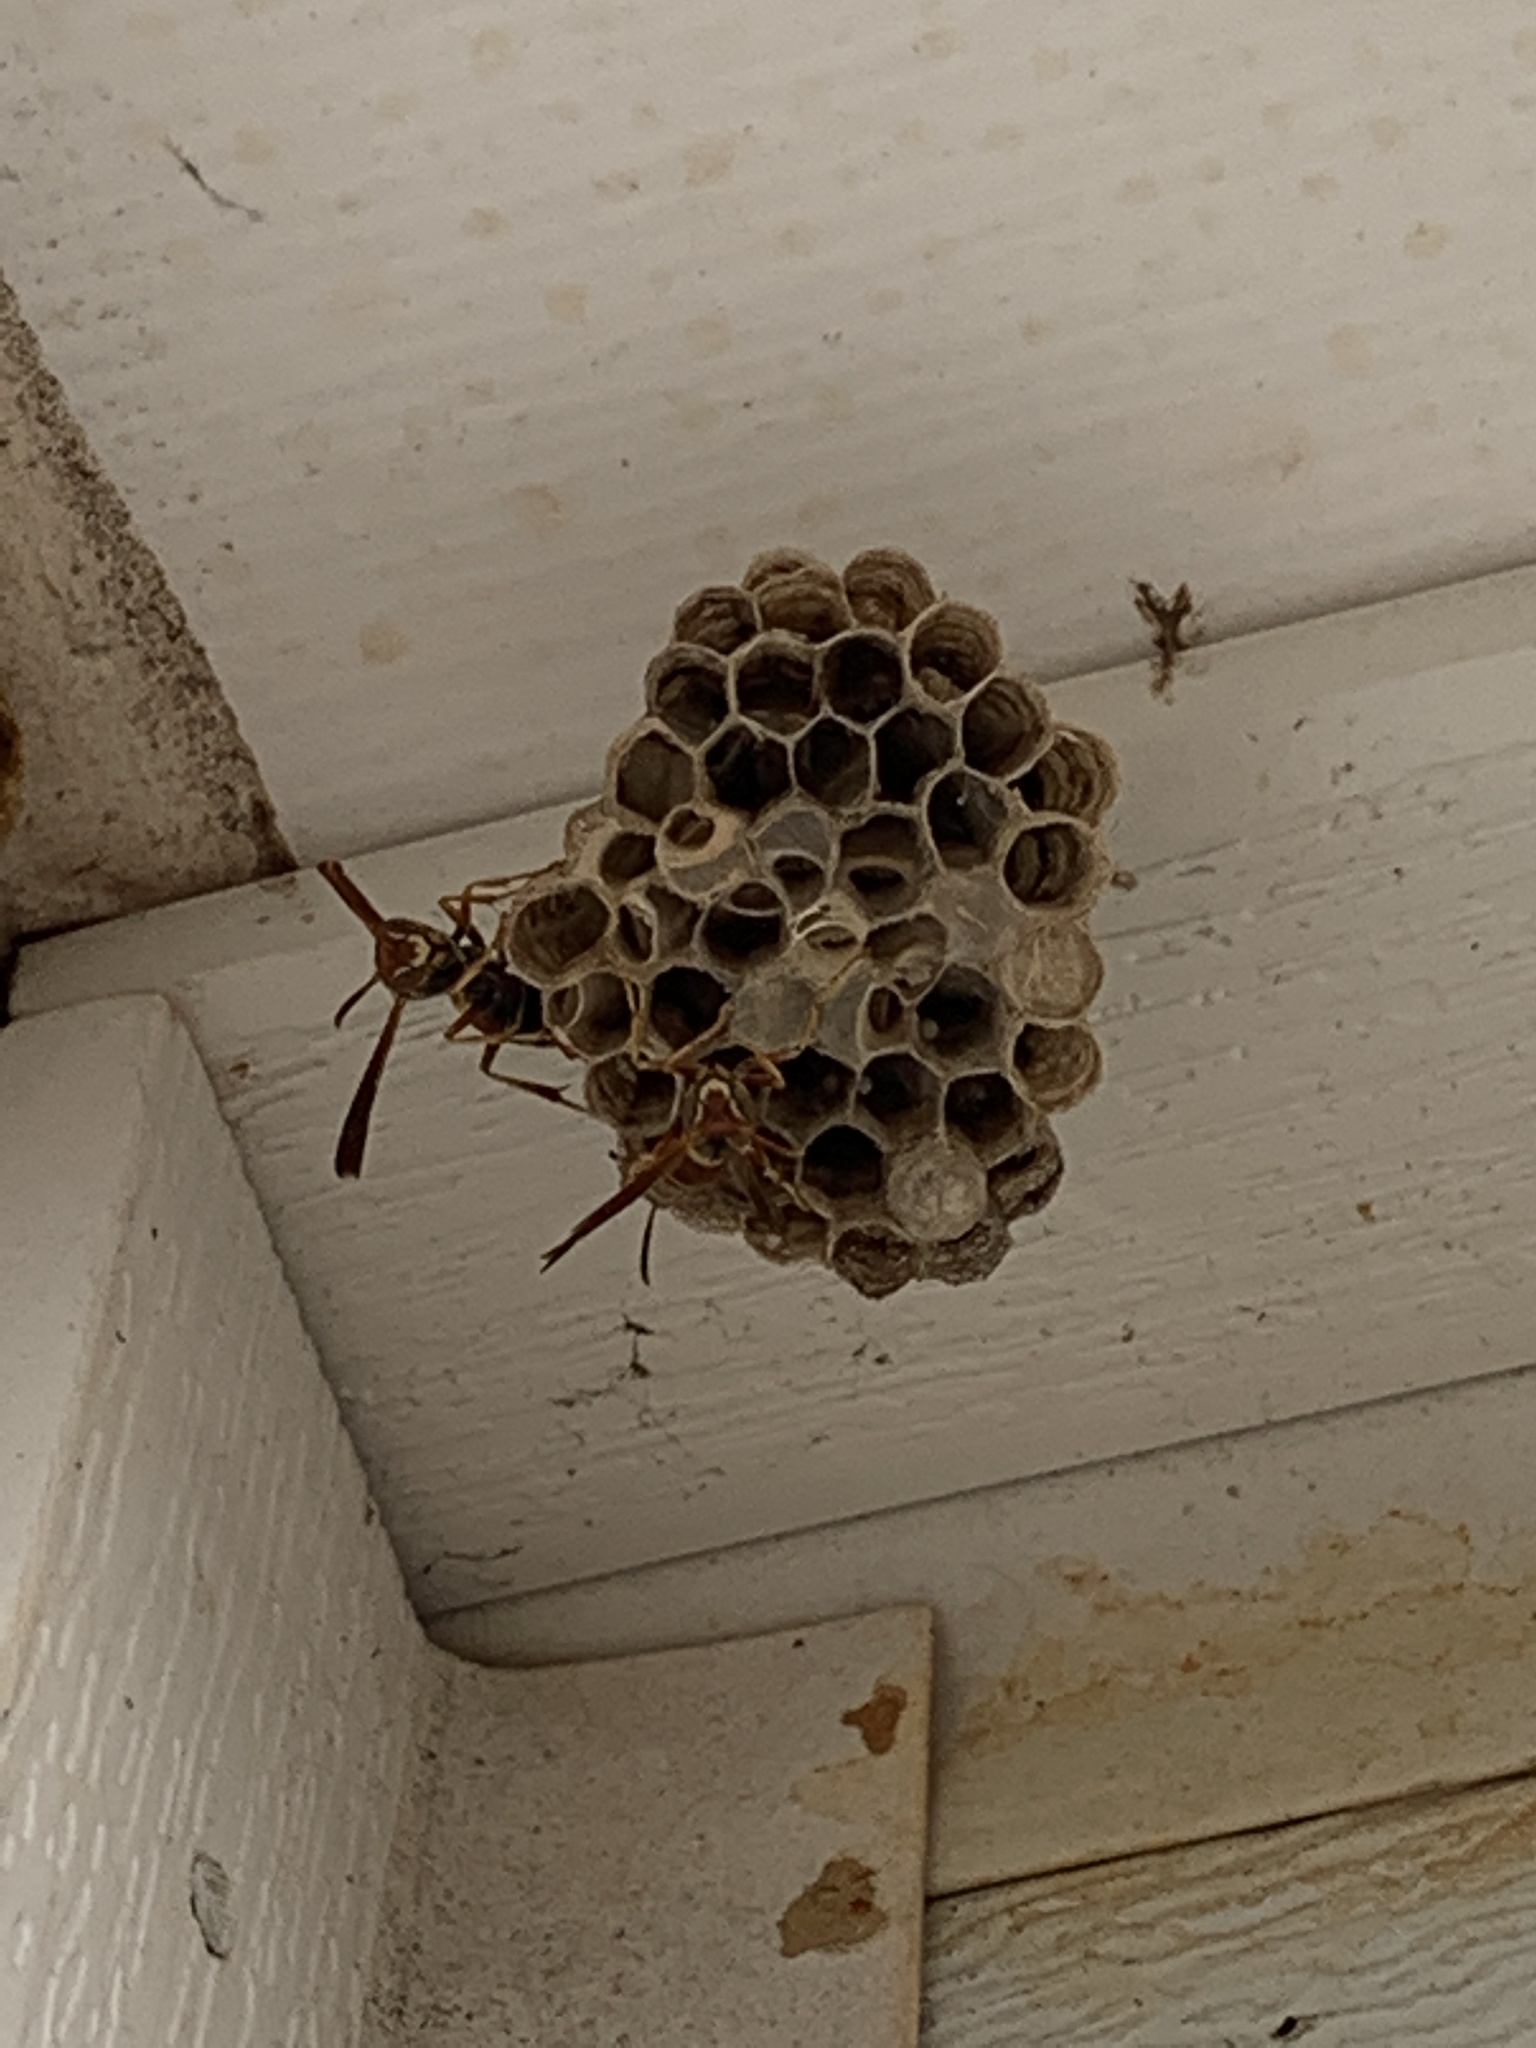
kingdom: Animalia
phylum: Arthropoda
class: Insecta
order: Hymenoptera
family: Eumenidae
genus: Polistes
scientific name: Polistes dorsalis
